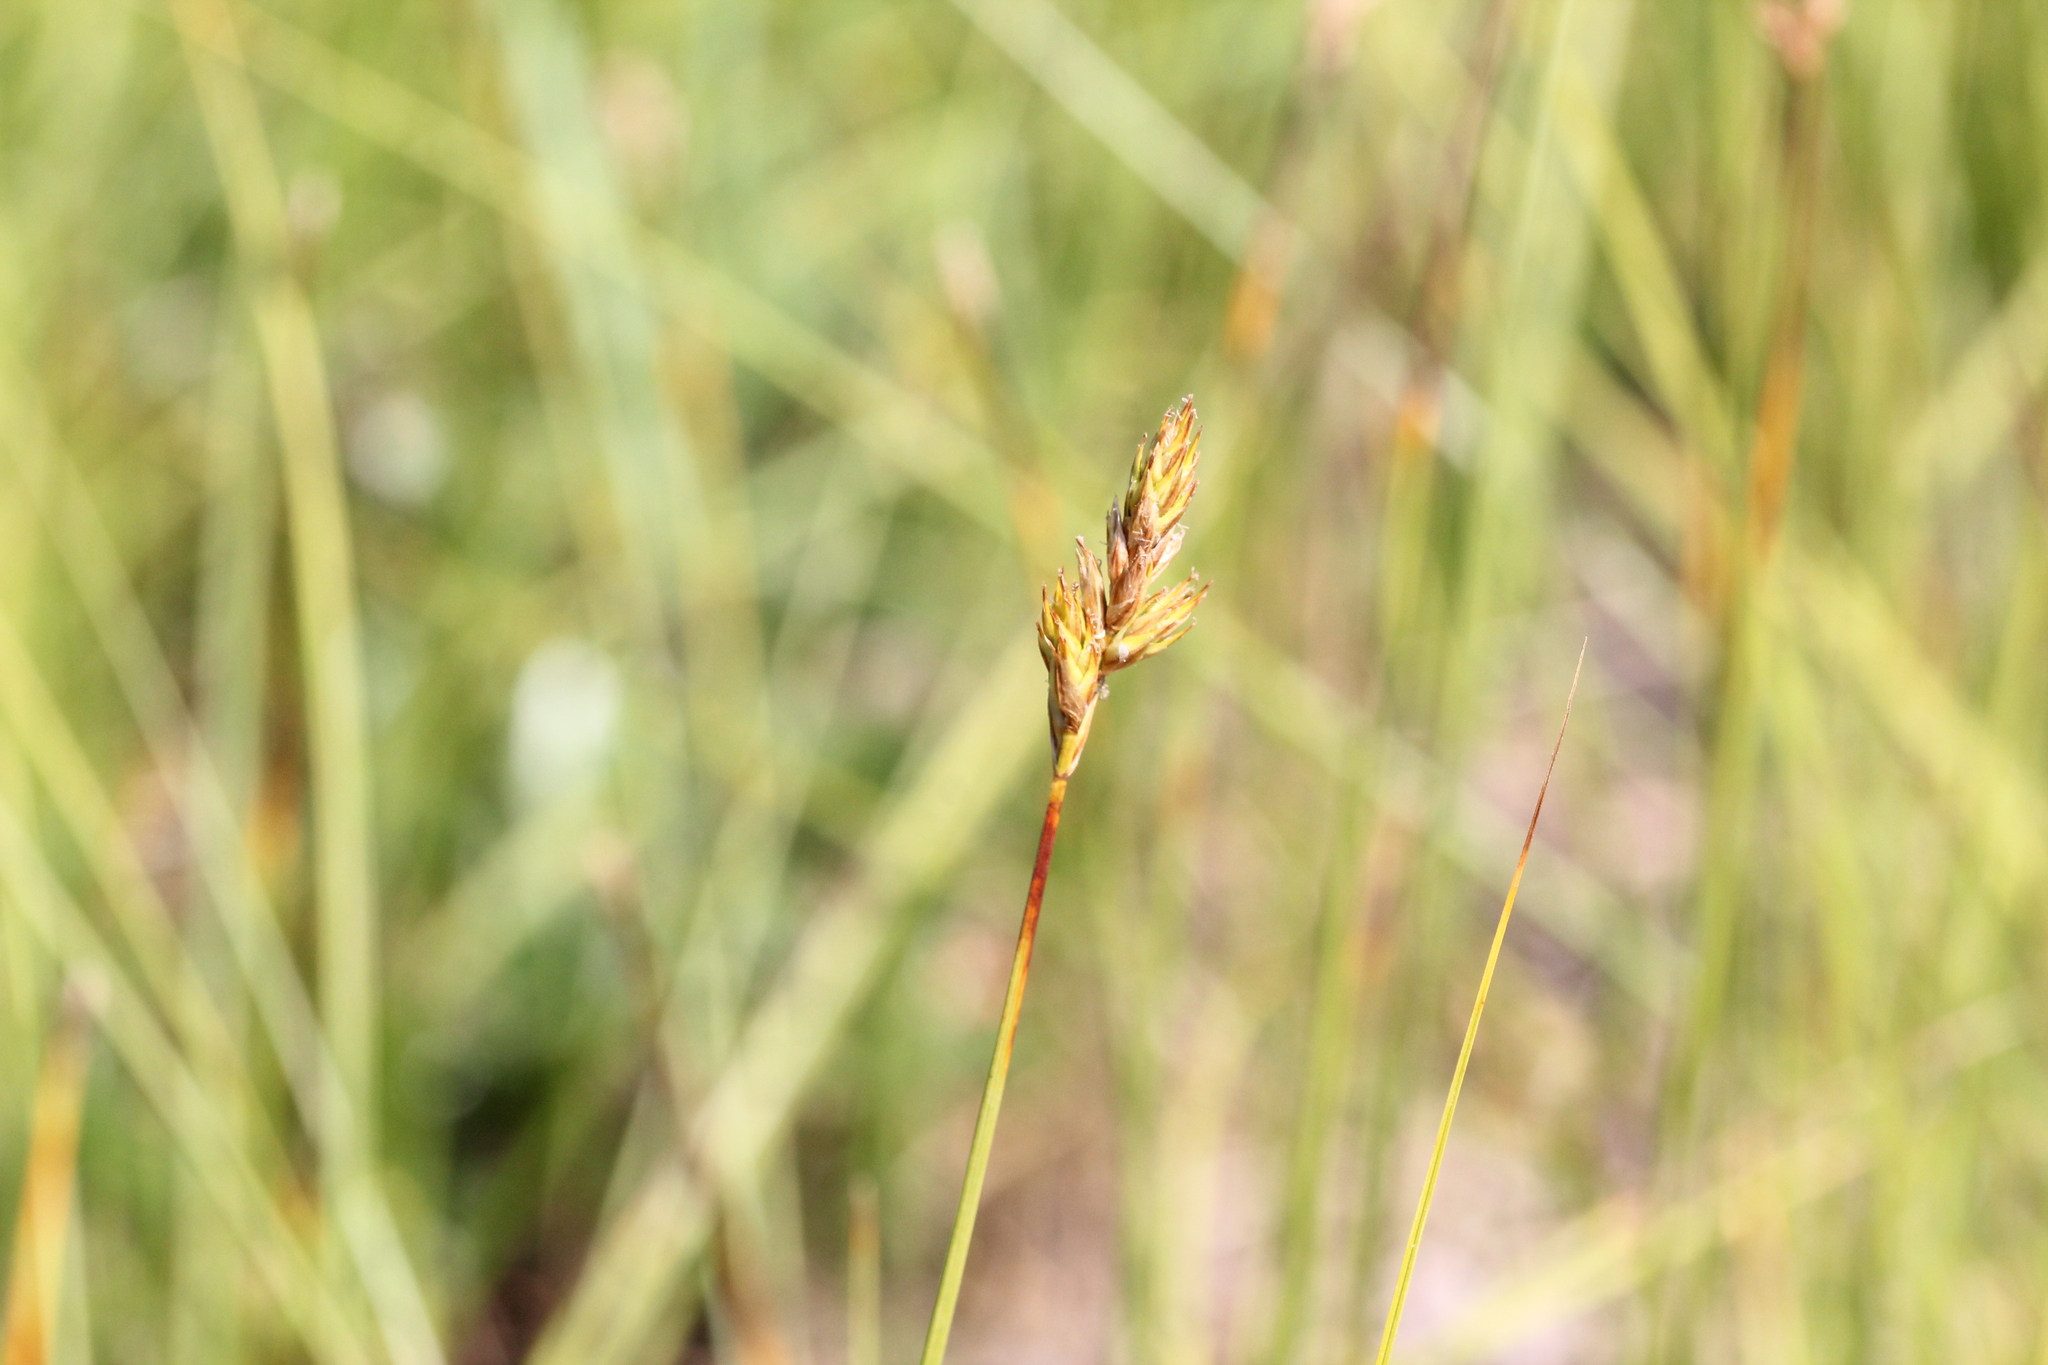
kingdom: Plantae
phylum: Tracheophyta
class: Liliopsida
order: Poales
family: Cyperaceae
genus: Carex
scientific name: Carex siccata
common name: Dry sedge
